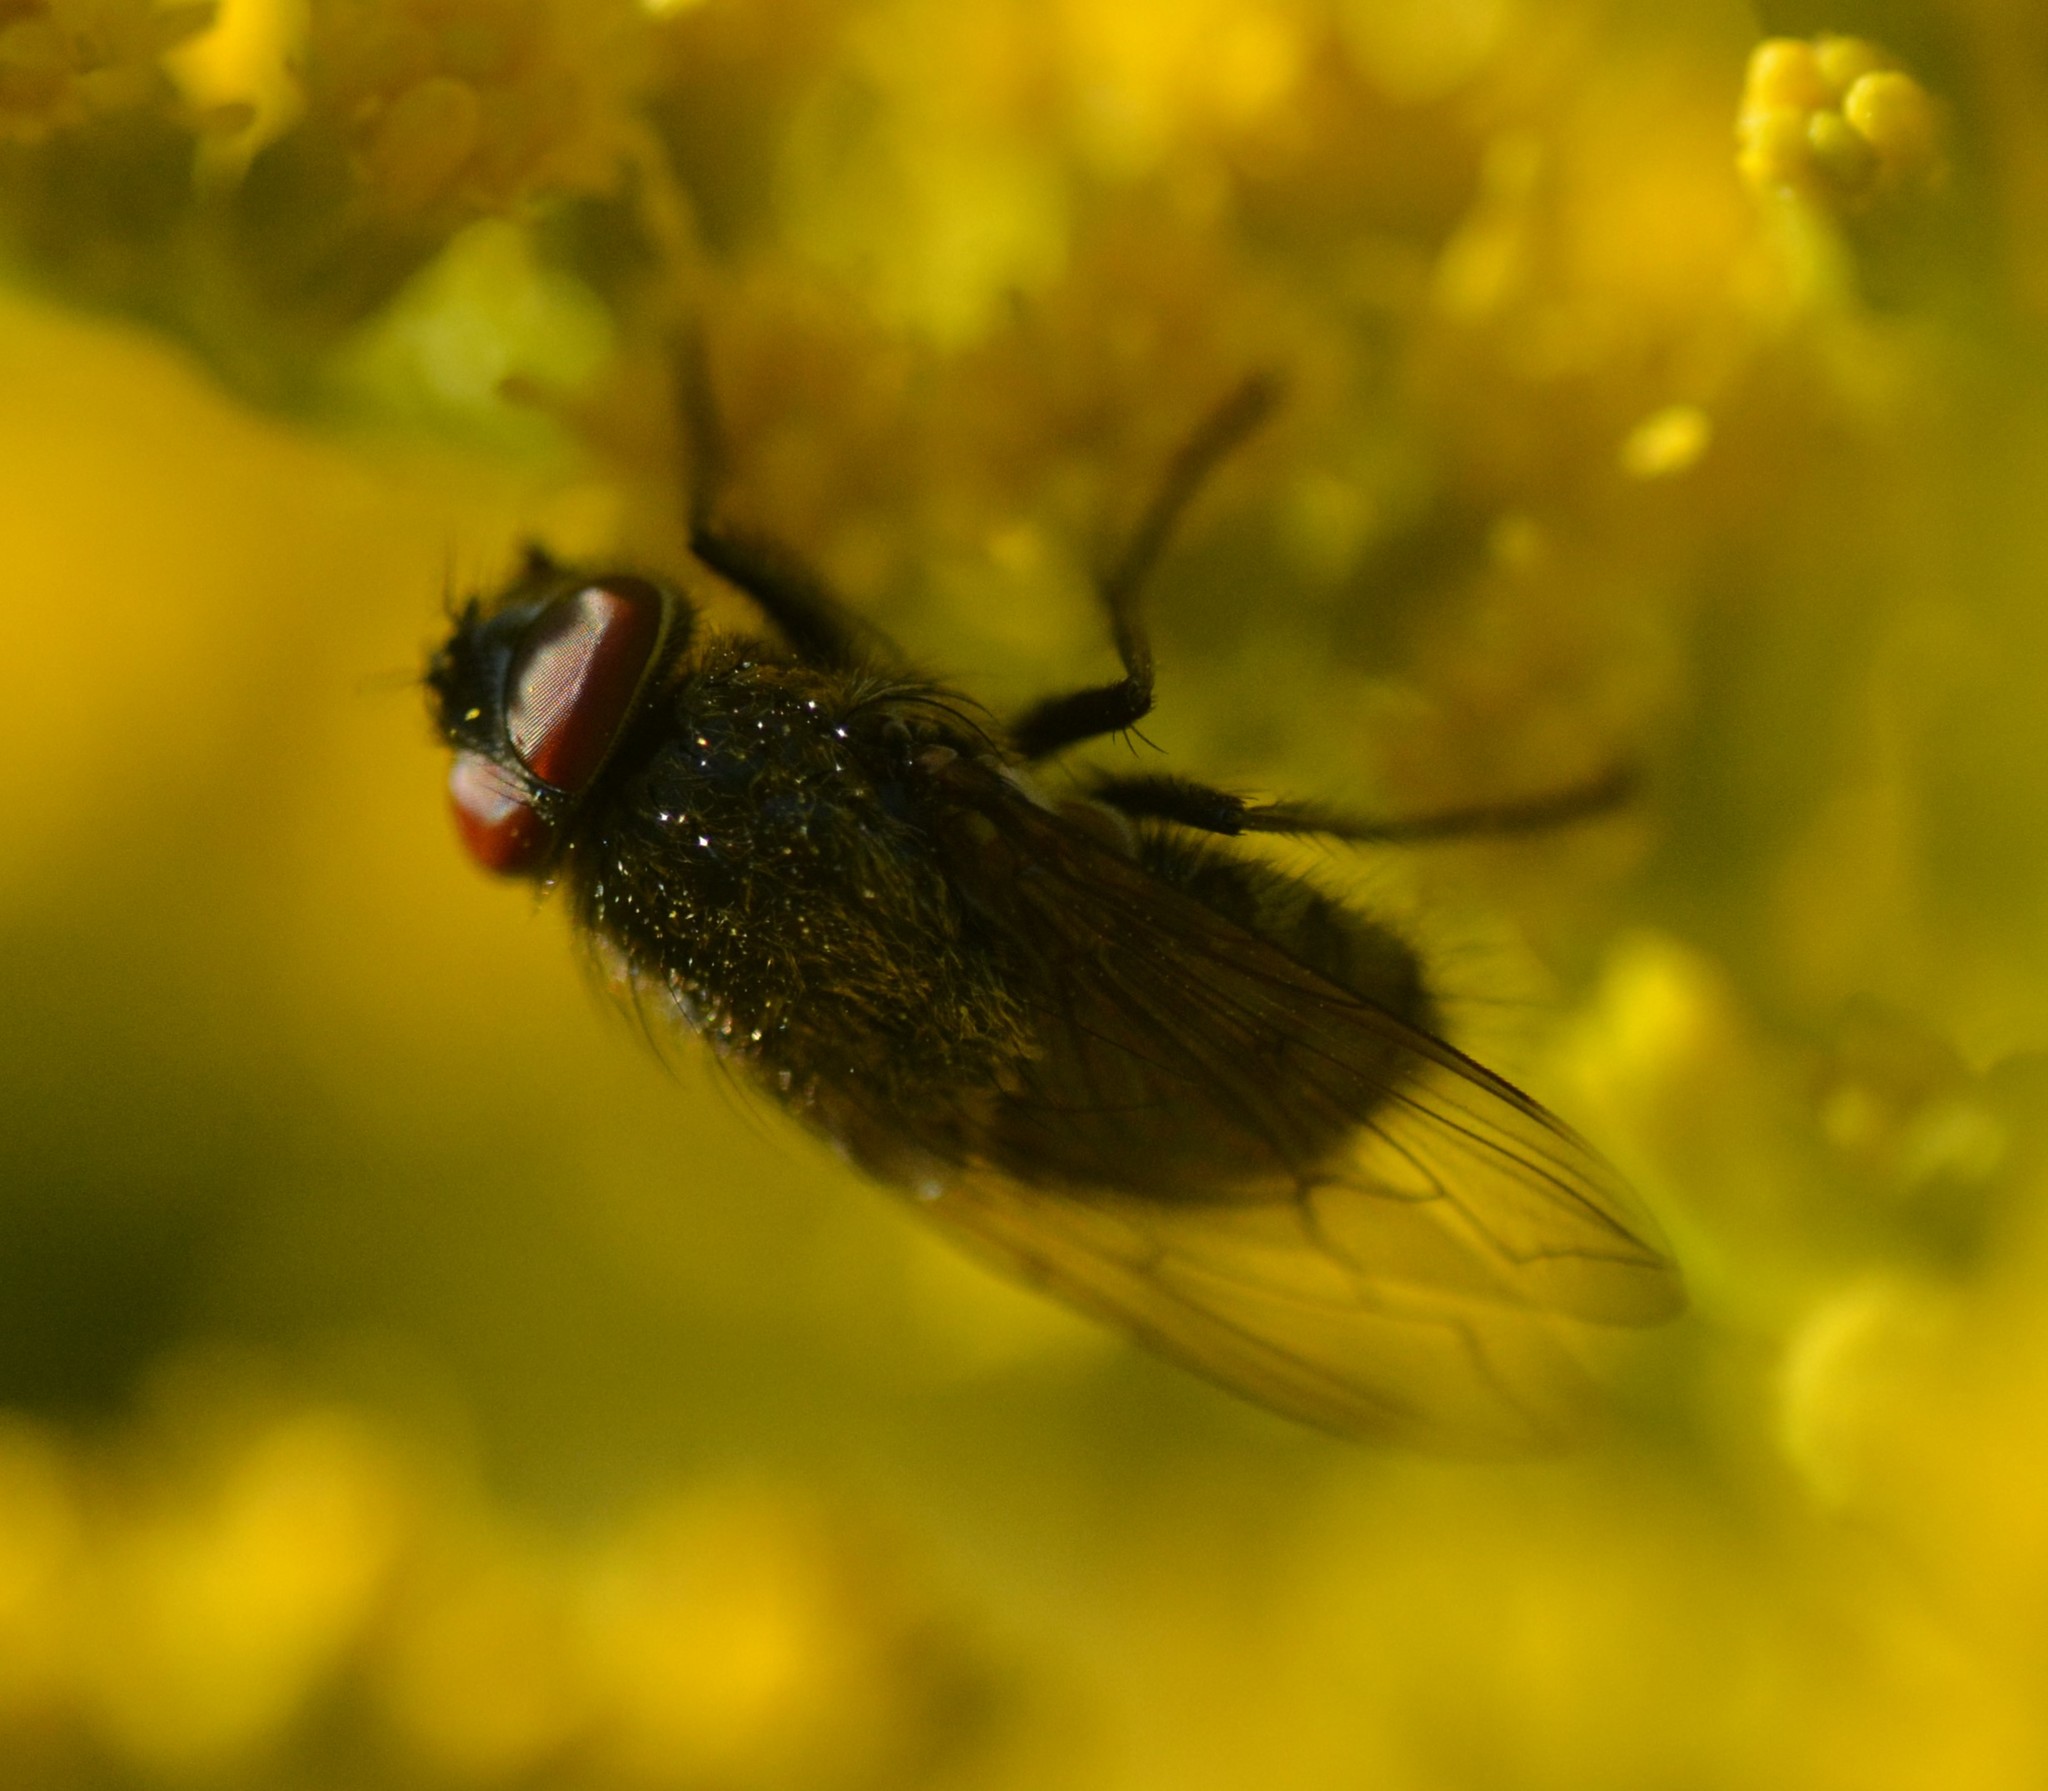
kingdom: Animalia
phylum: Arthropoda
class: Insecta
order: Diptera
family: Polleniidae
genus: Pollenia
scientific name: Pollenia
